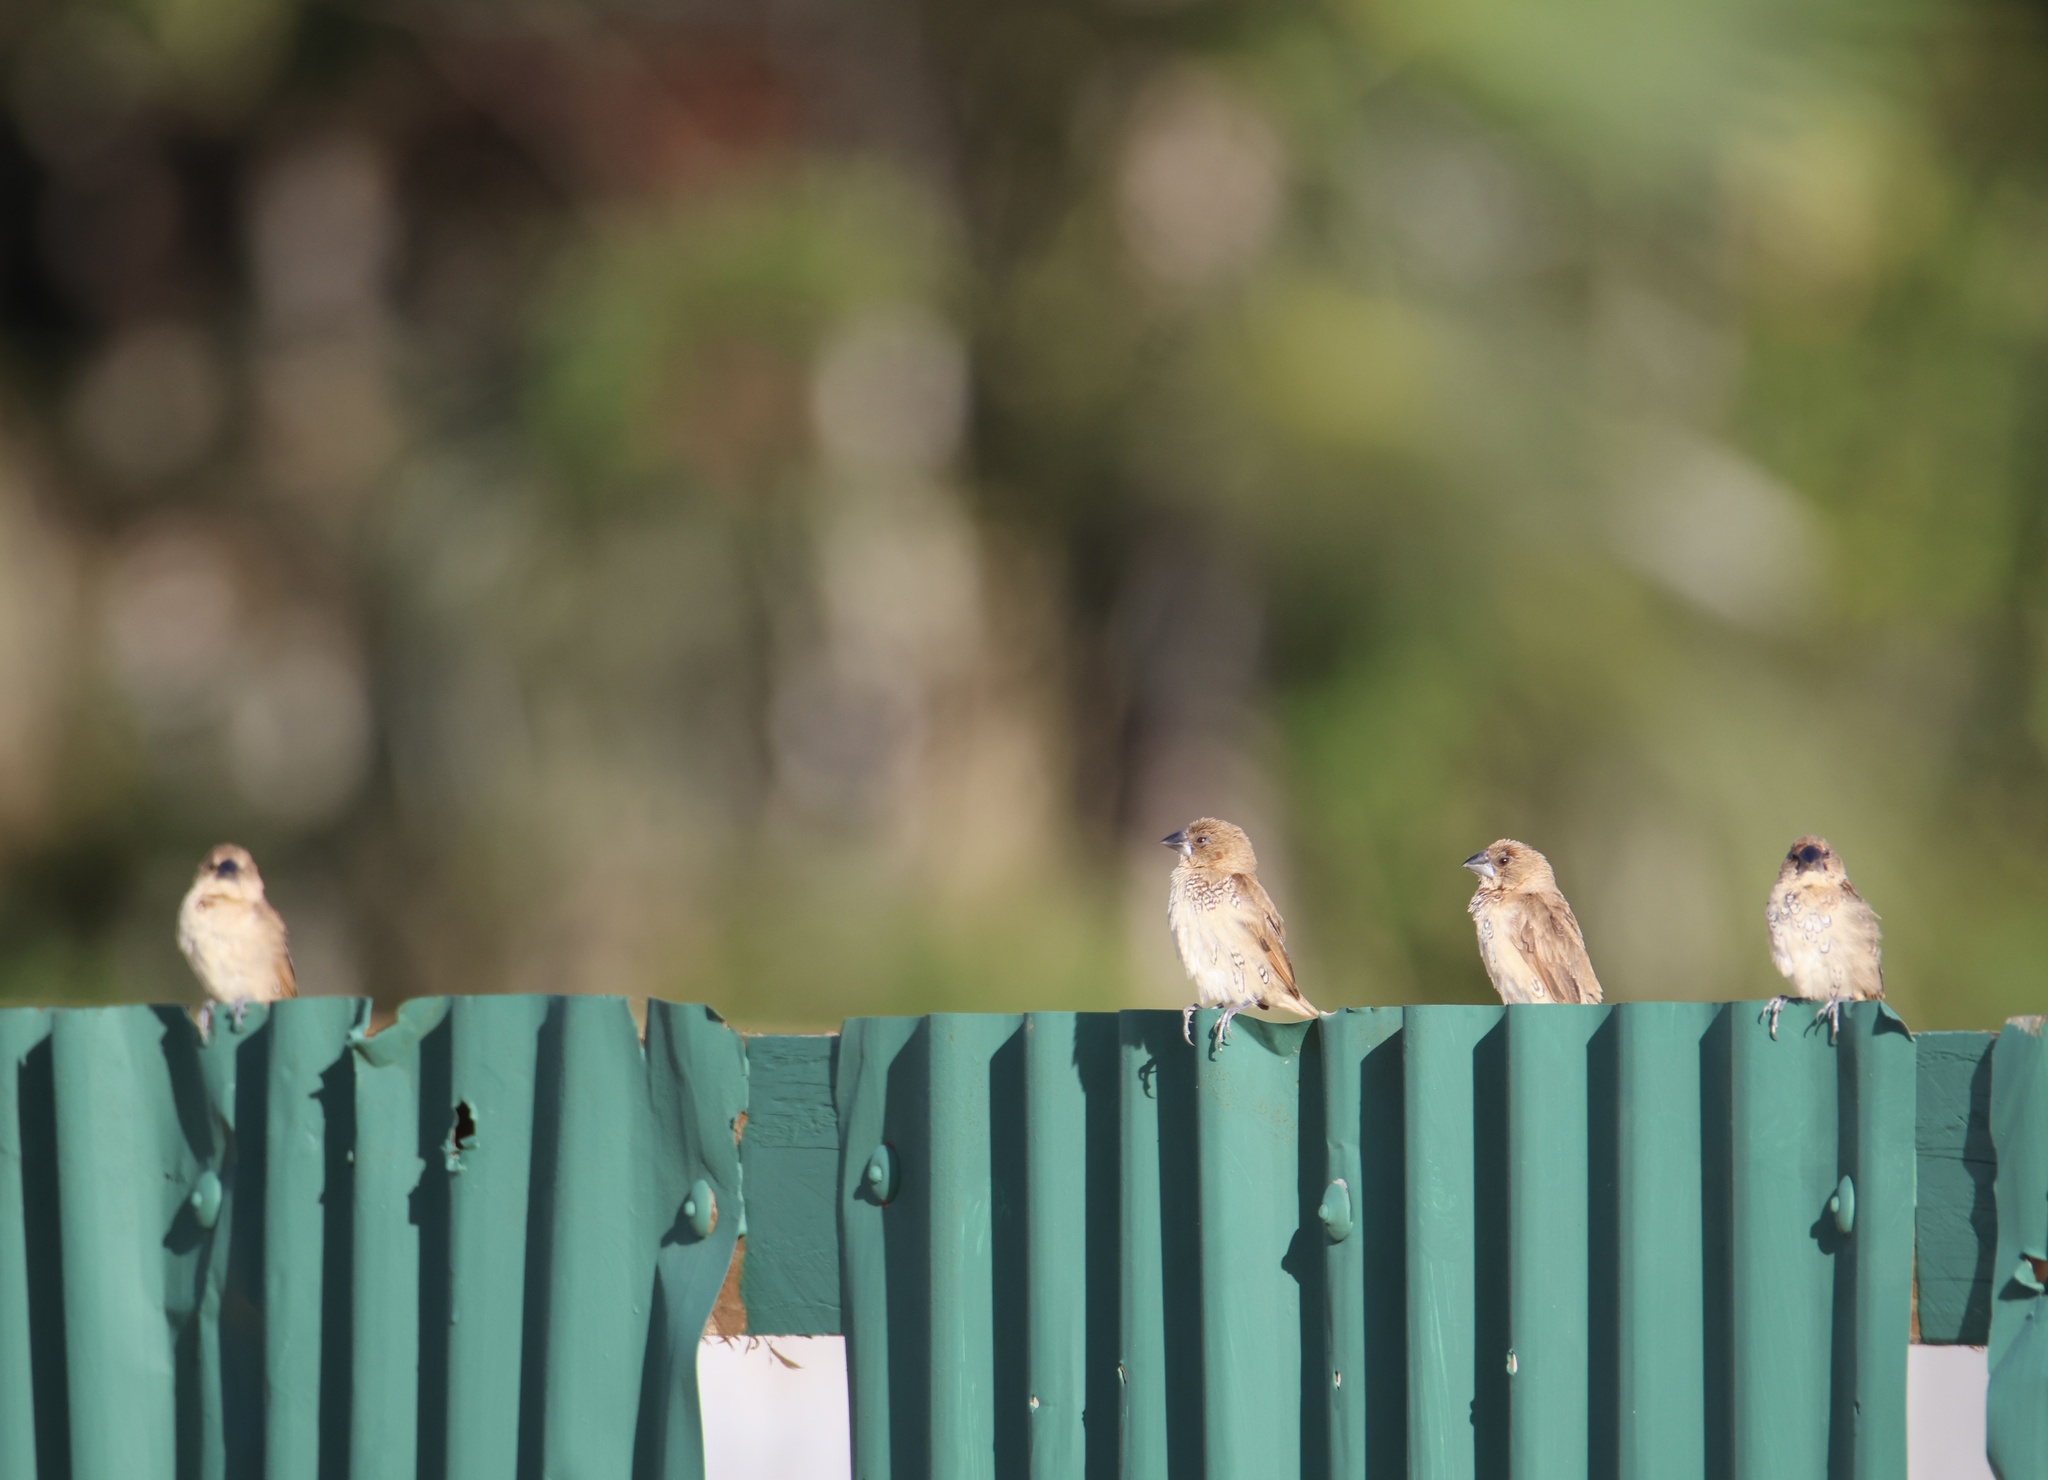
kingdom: Animalia
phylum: Chordata
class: Aves
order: Passeriformes
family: Estrildidae
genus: Lonchura
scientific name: Lonchura punctulata
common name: Scaly-breasted munia
